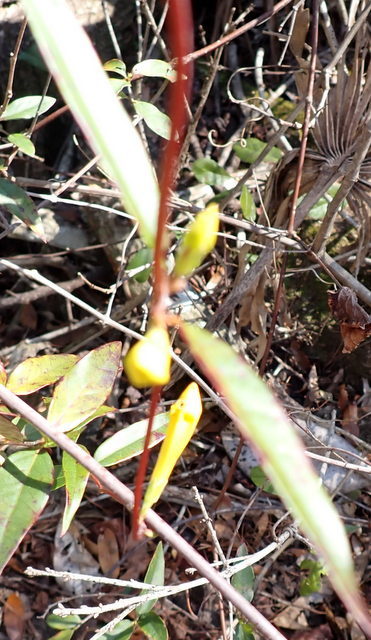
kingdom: Plantae
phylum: Tracheophyta
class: Magnoliopsida
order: Gentianales
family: Gelsemiaceae
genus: Gelsemium
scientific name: Gelsemium sempervirens
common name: Carolina-jasmine
